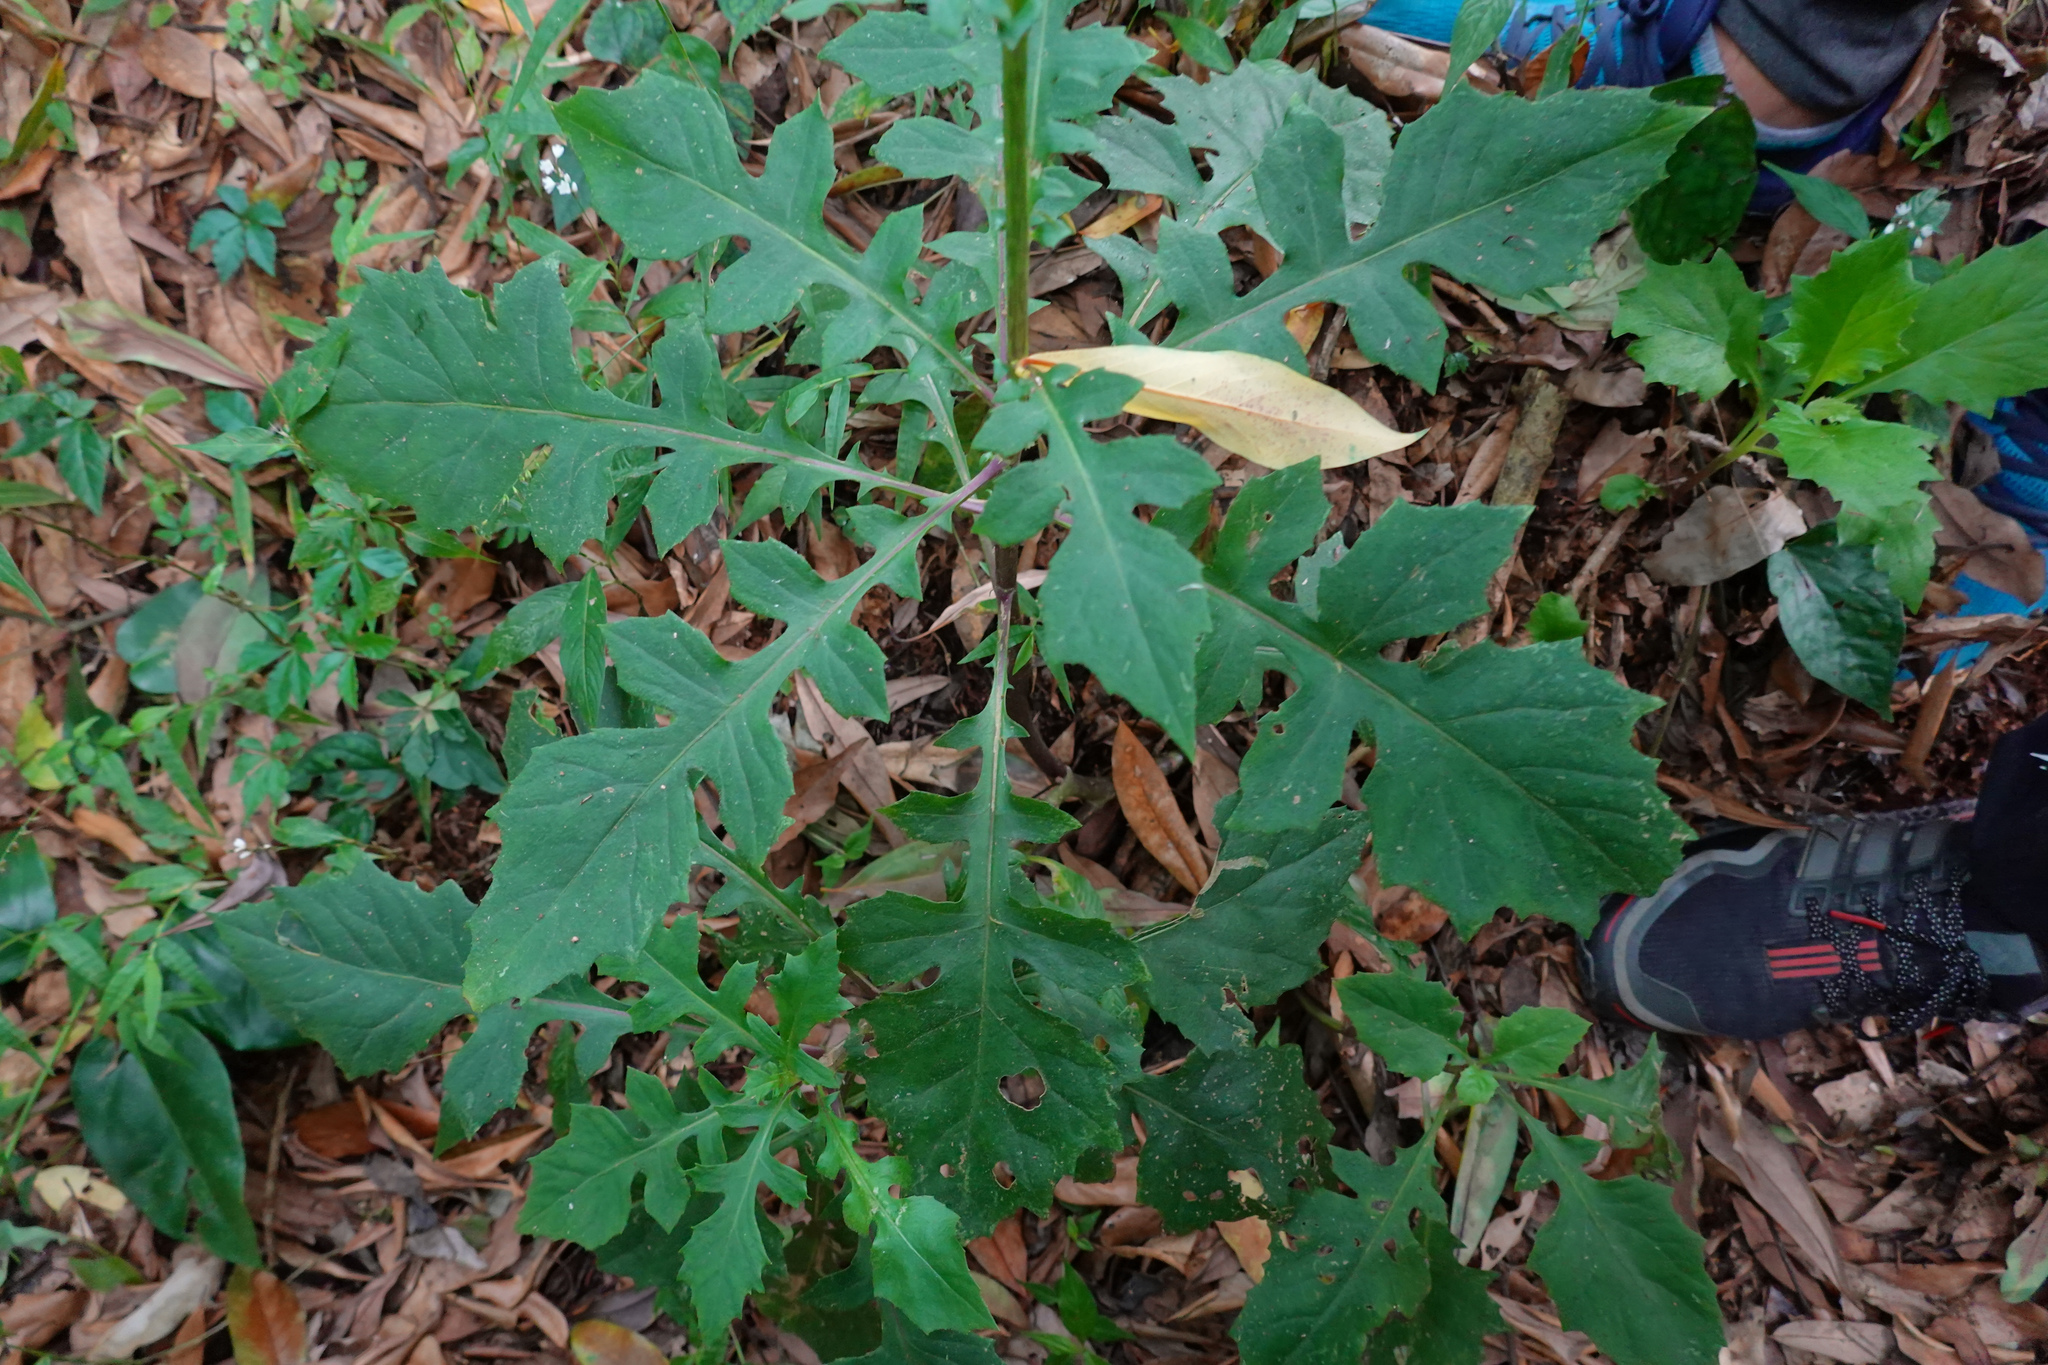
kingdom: Plantae
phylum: Tracheophyta
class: Magnoliopsida
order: Asterales
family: Asteraceae
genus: Gynura
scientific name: Gynura japonica
